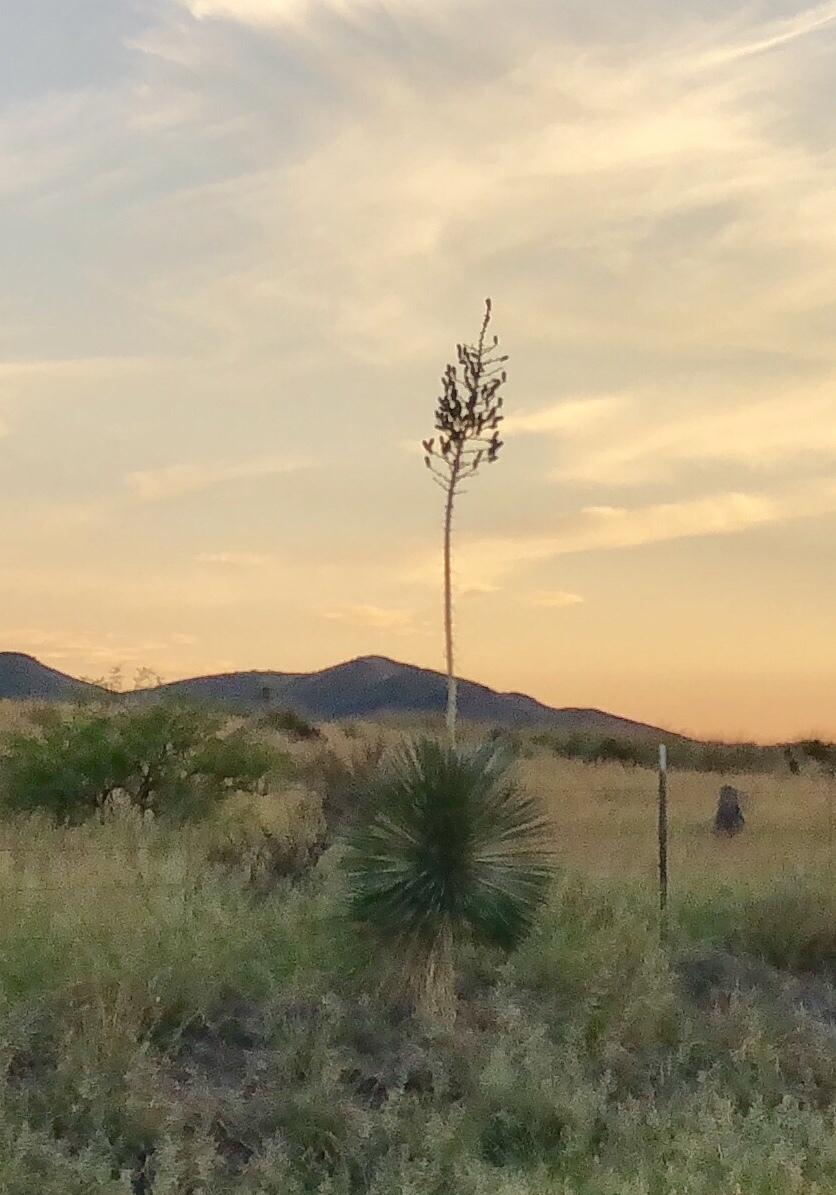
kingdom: Plantae
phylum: Tracheophyta
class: Liliopsida
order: Asparagales
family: Asparagaceae
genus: Yucca
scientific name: Yucca elata
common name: Palmella
